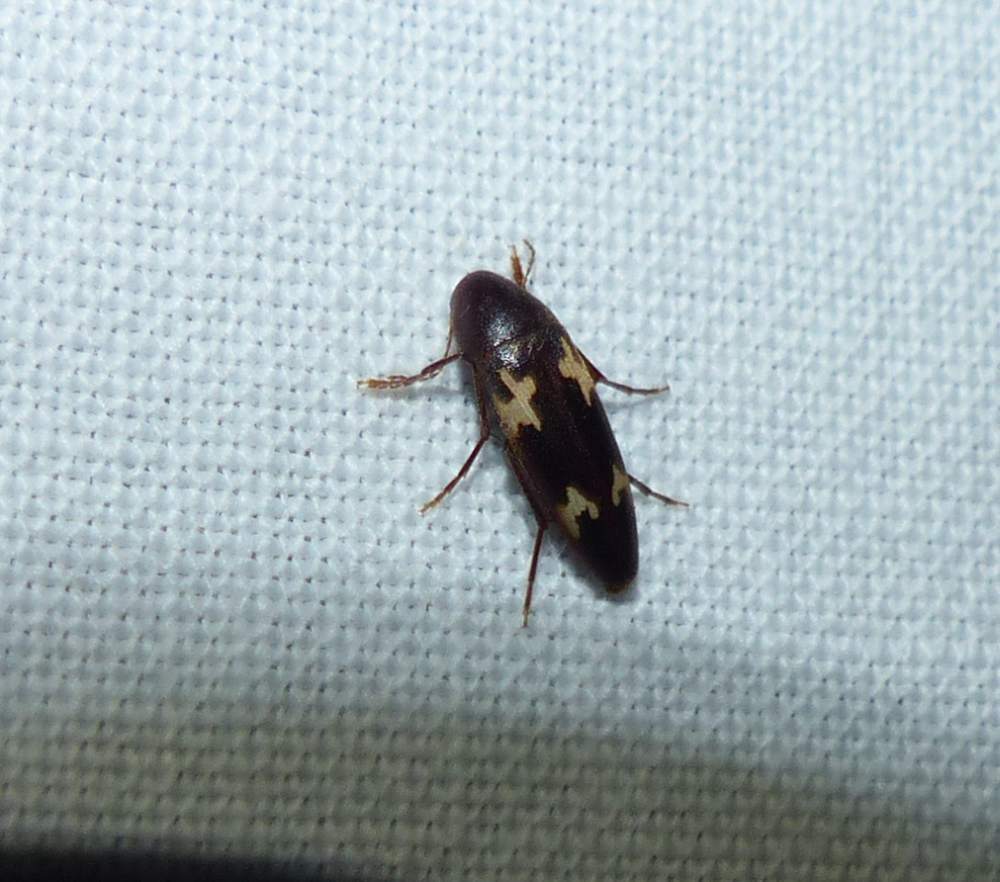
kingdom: Animalia
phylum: Arthropoda
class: Insecta
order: Coleoptera
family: Melandryidae
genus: Dircaea
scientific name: Dircaea liturata
